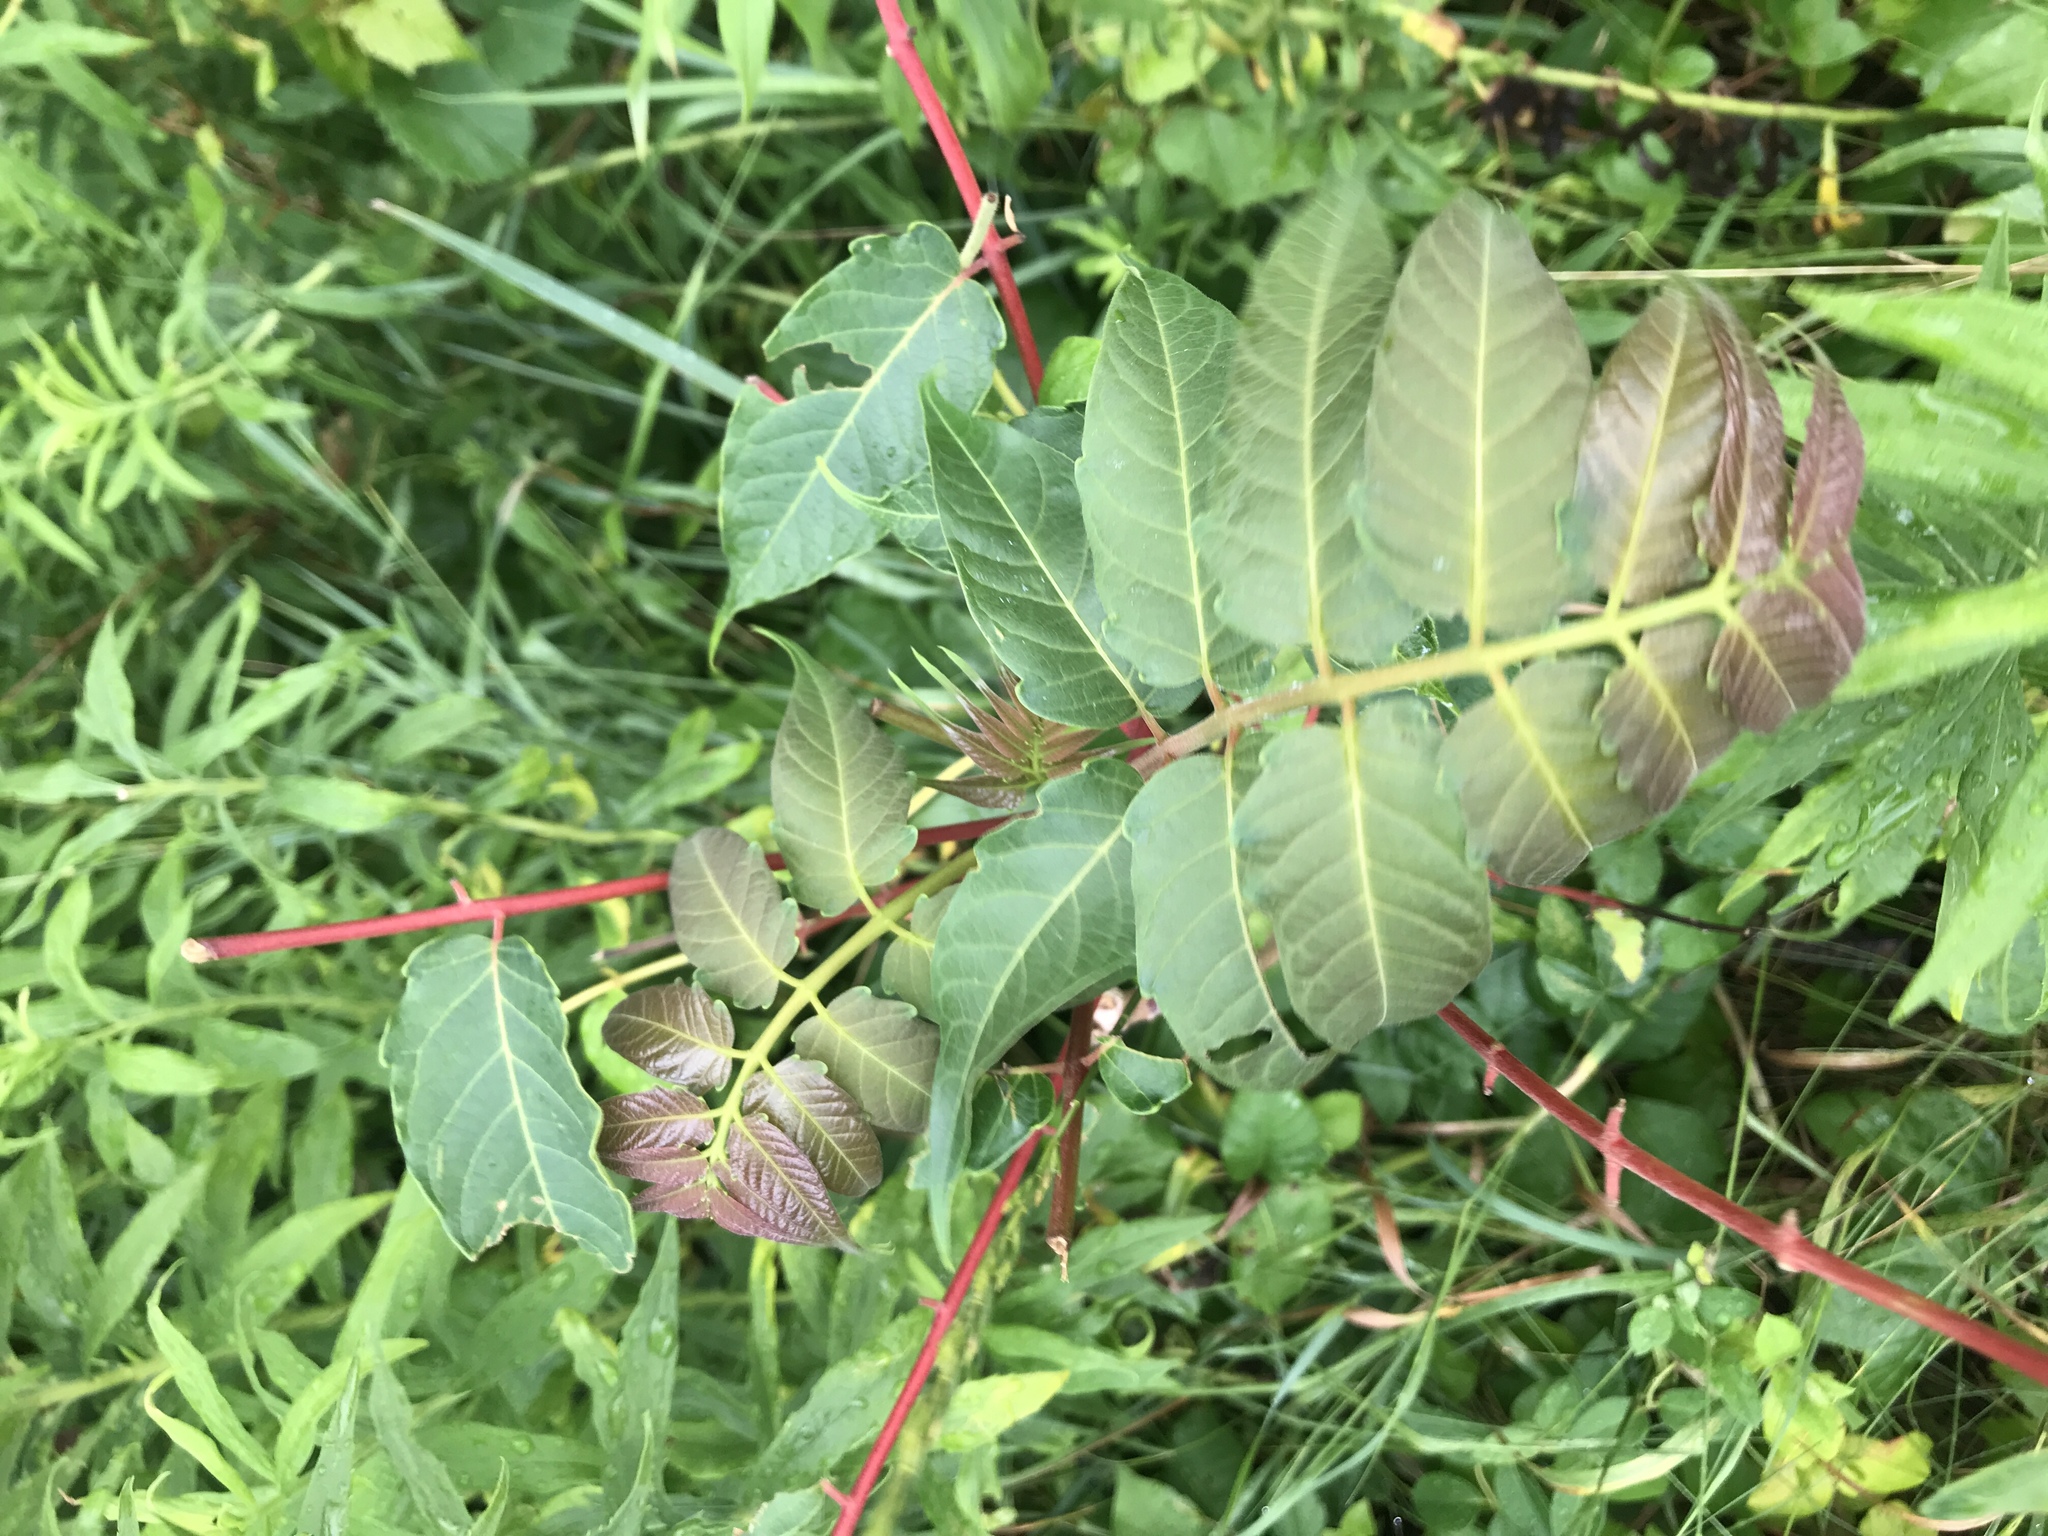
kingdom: Plantae
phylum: Tracheophyta
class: Magnoliopsida
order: Sapindales
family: Simaroubaceae
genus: Ailanthus
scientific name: Ailanthus altissima
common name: Tree-of-heaven
